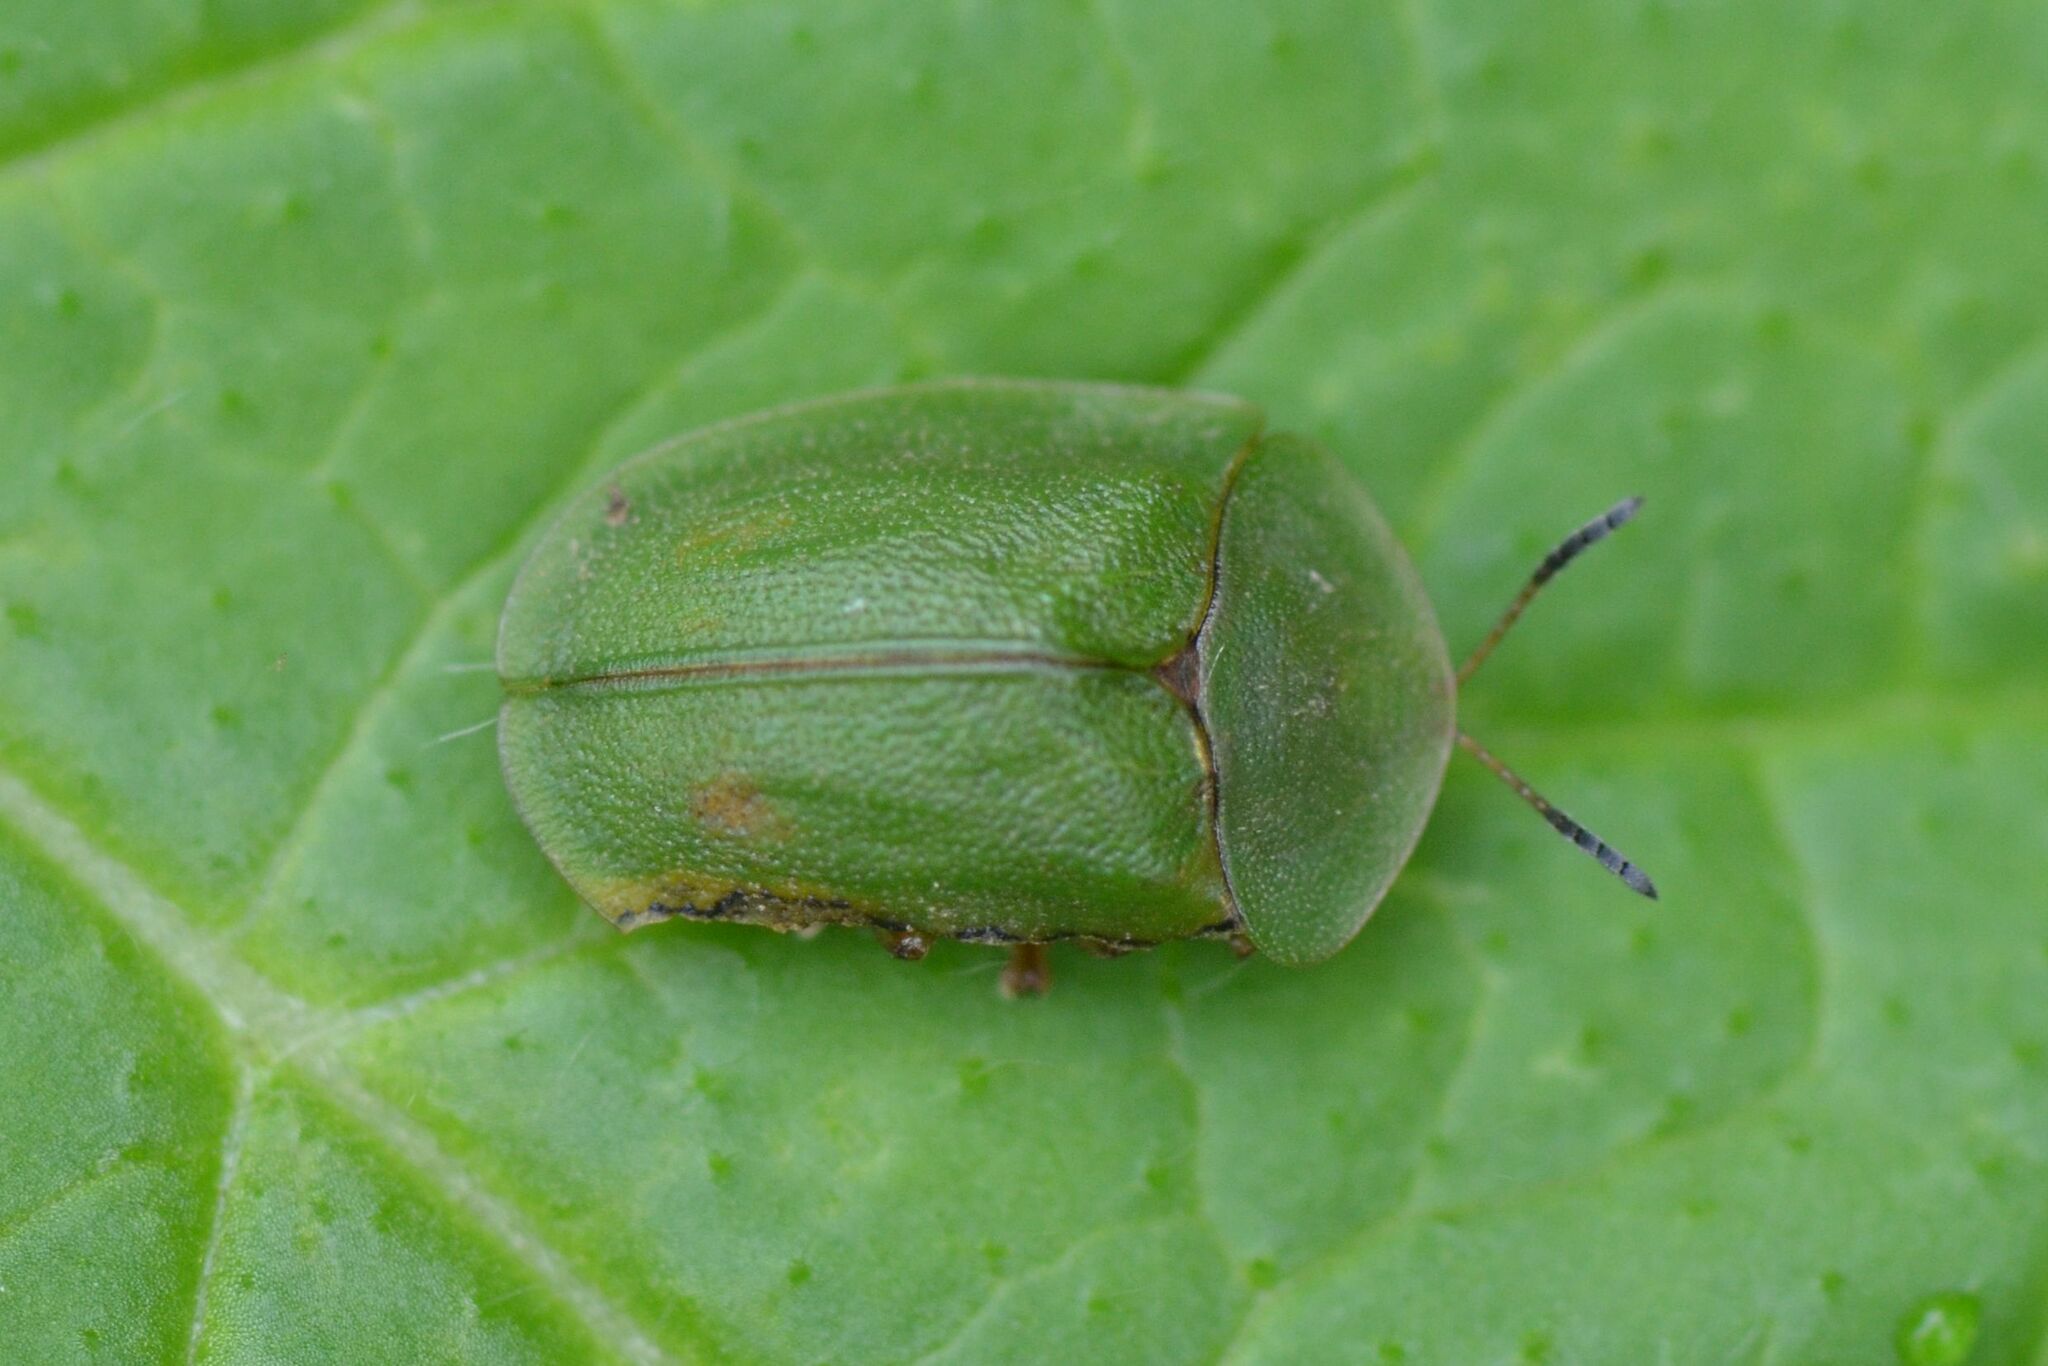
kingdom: Animalia
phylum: Arthropoda
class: Insecta
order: Coleoptera
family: Chrysomelidae
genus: Cassida
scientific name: Cassida viridis
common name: Green tortoise beetle
